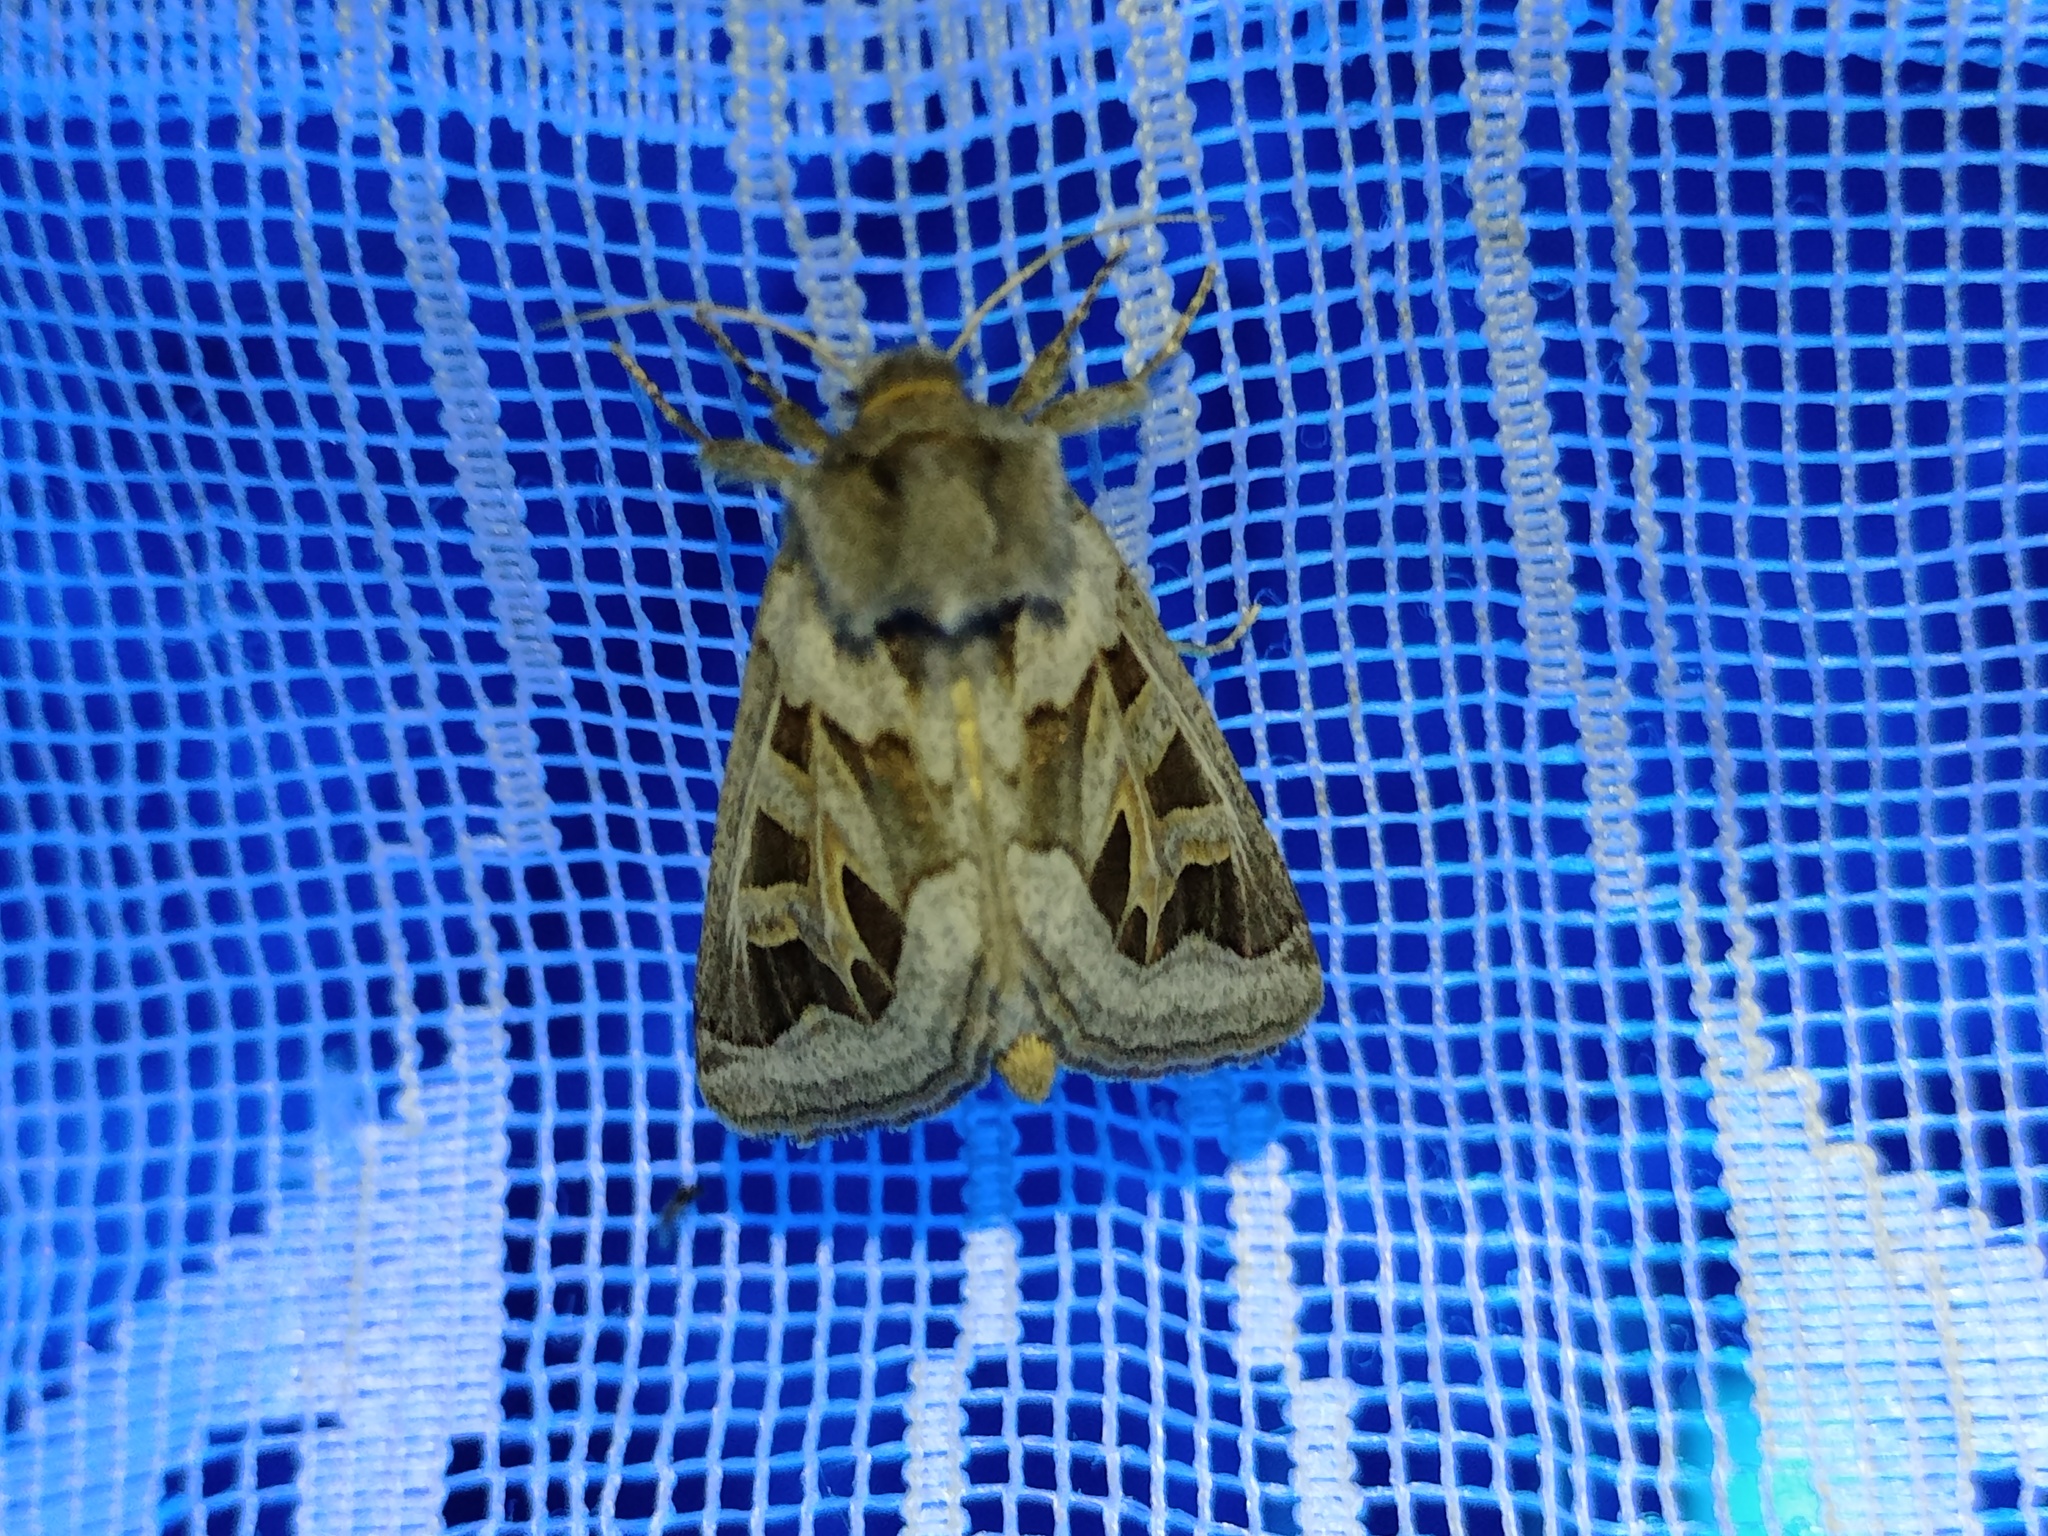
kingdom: Animalia
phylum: Arthropoda
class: Insecta
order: Lepidoptera
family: Noctuidae
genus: Episema
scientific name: Episema glaucina
